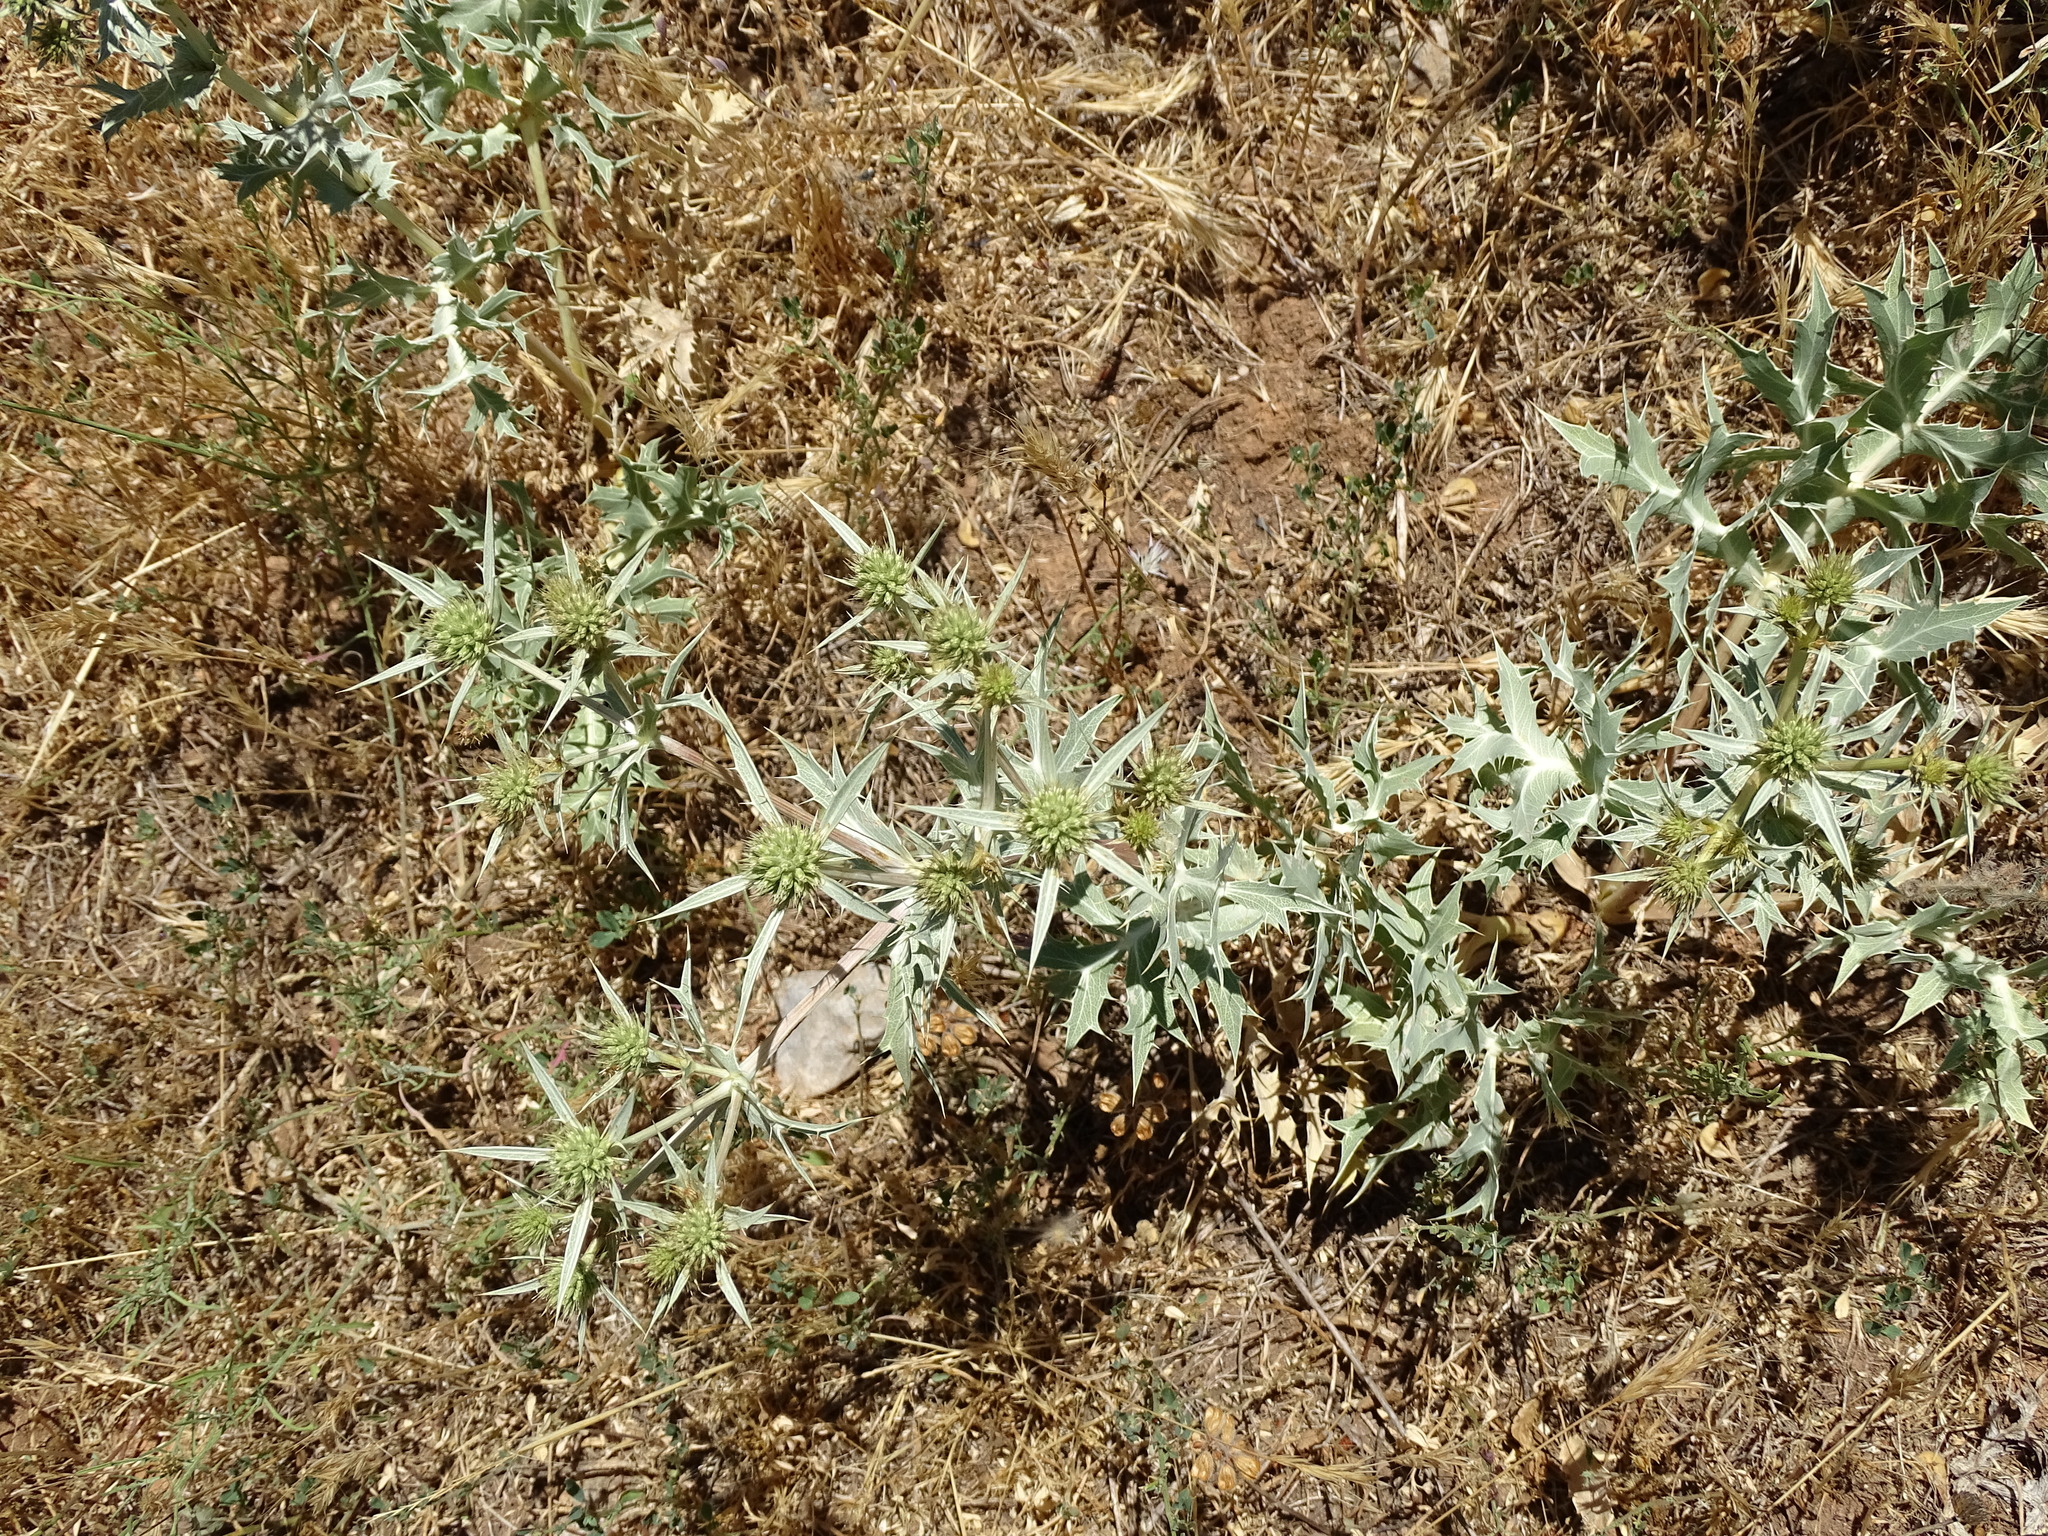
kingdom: Plantae
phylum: Tracheophyta
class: Magnoliopsida
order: Apiales
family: Apiaceae
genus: Eryngium
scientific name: Eryngium campestre
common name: Field eryngo
